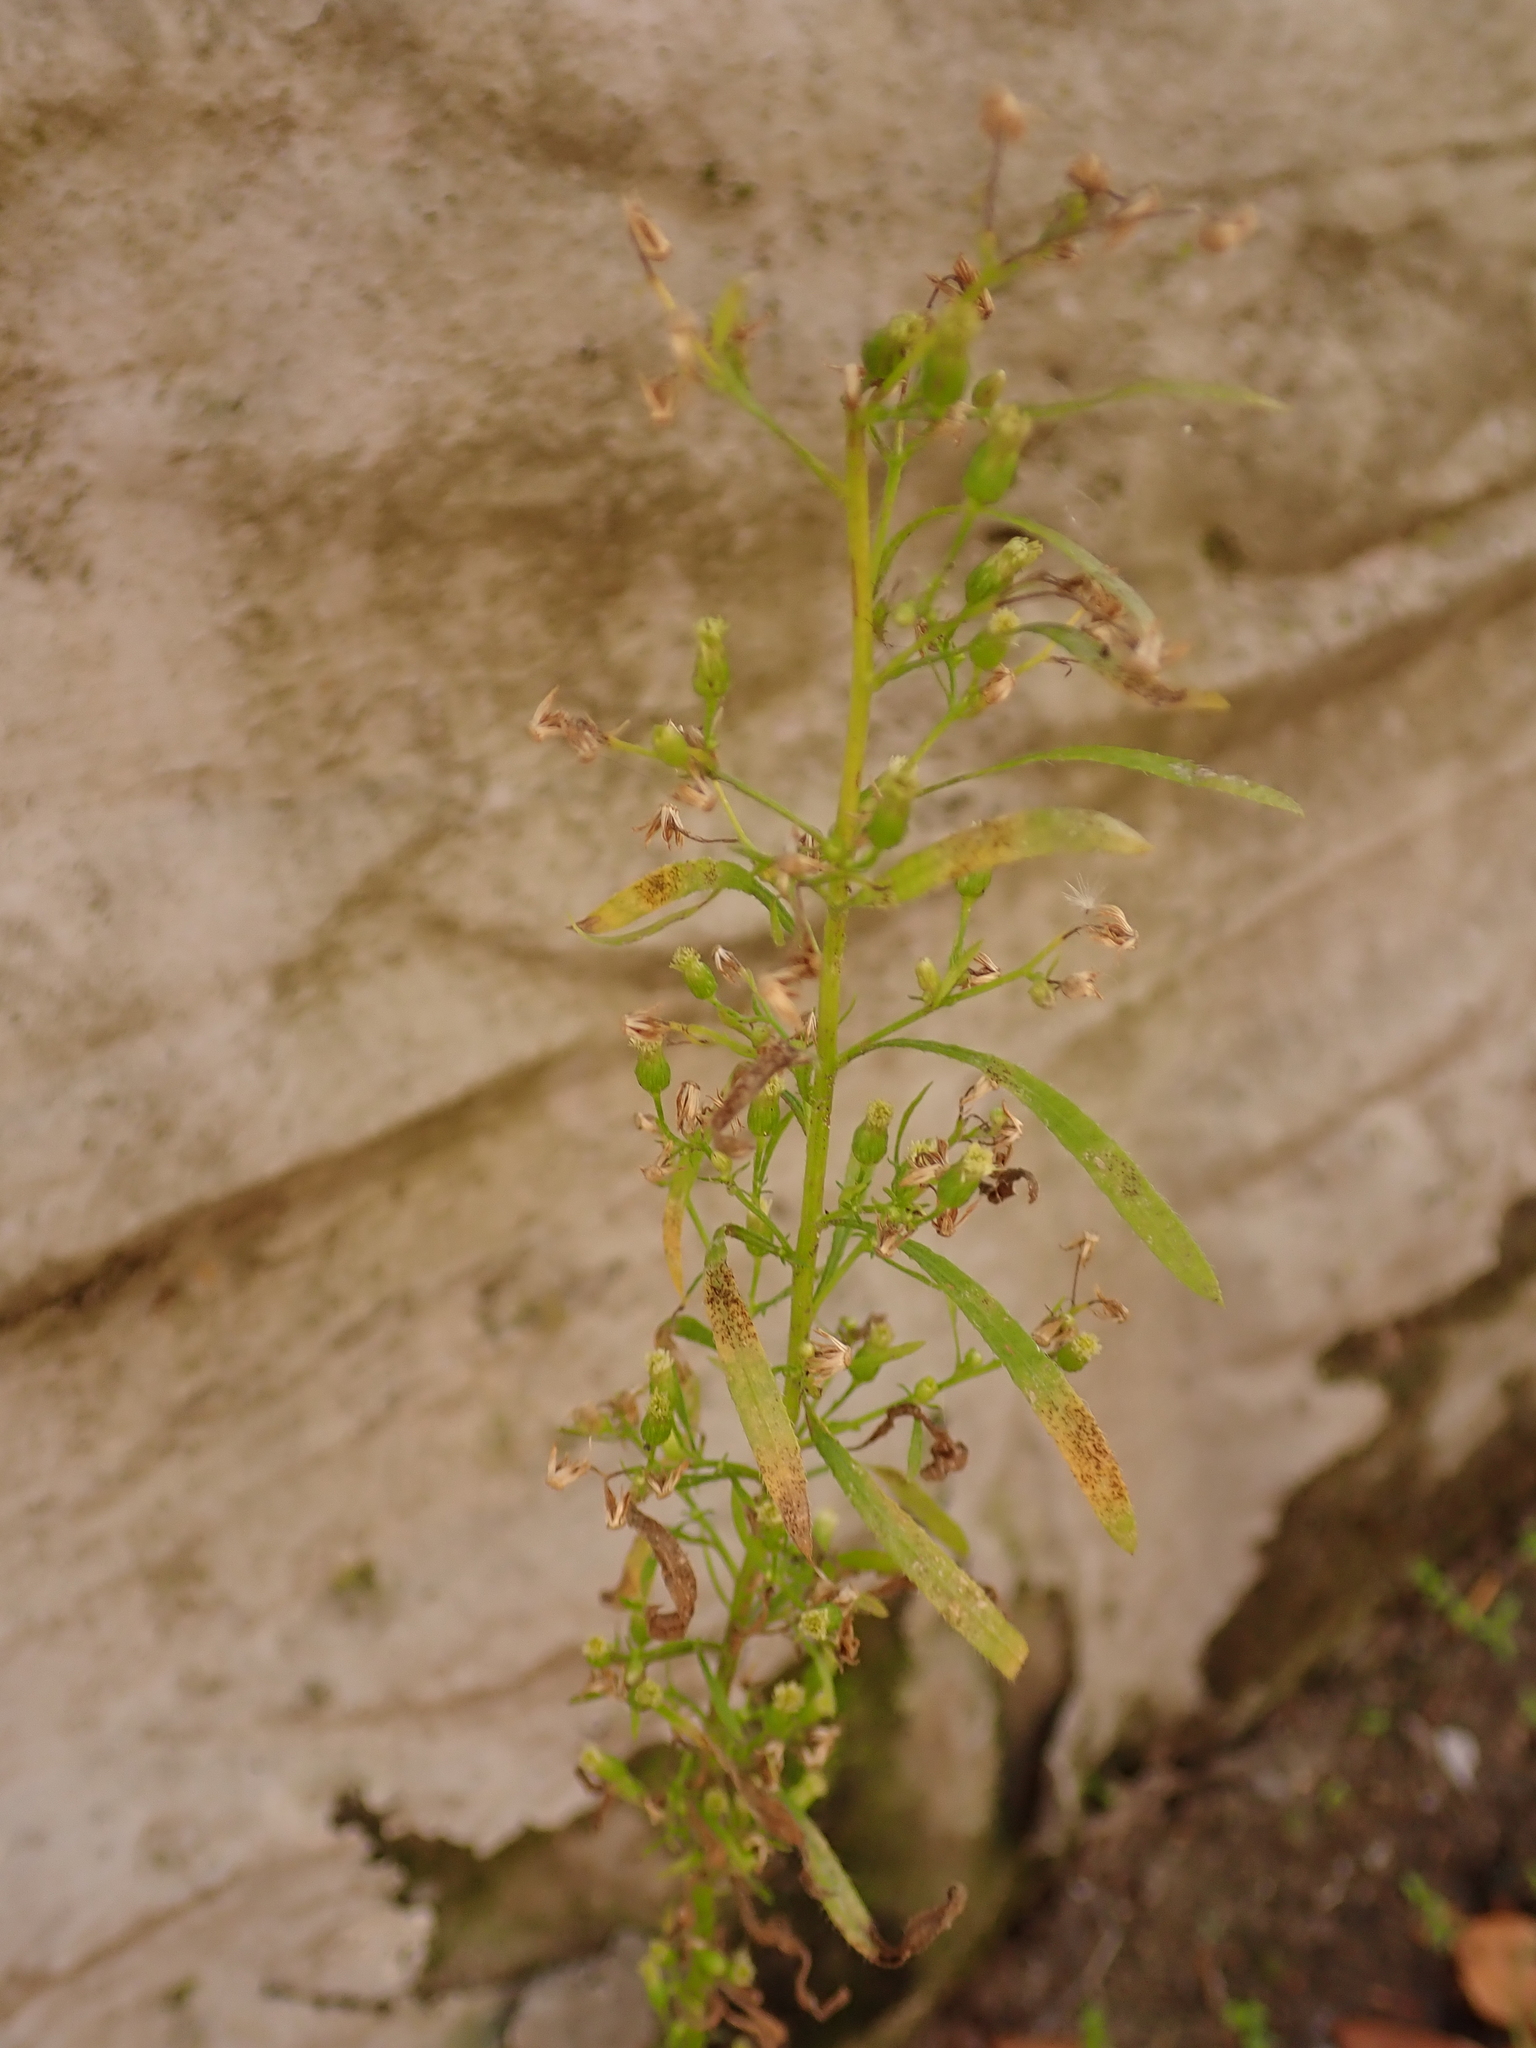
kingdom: Plantae
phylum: Tracheophyta
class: Magnoliopsida
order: Asterales
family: Asteraceae
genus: Erigeron
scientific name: Erigeron canadensis
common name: Canadian fleabane
